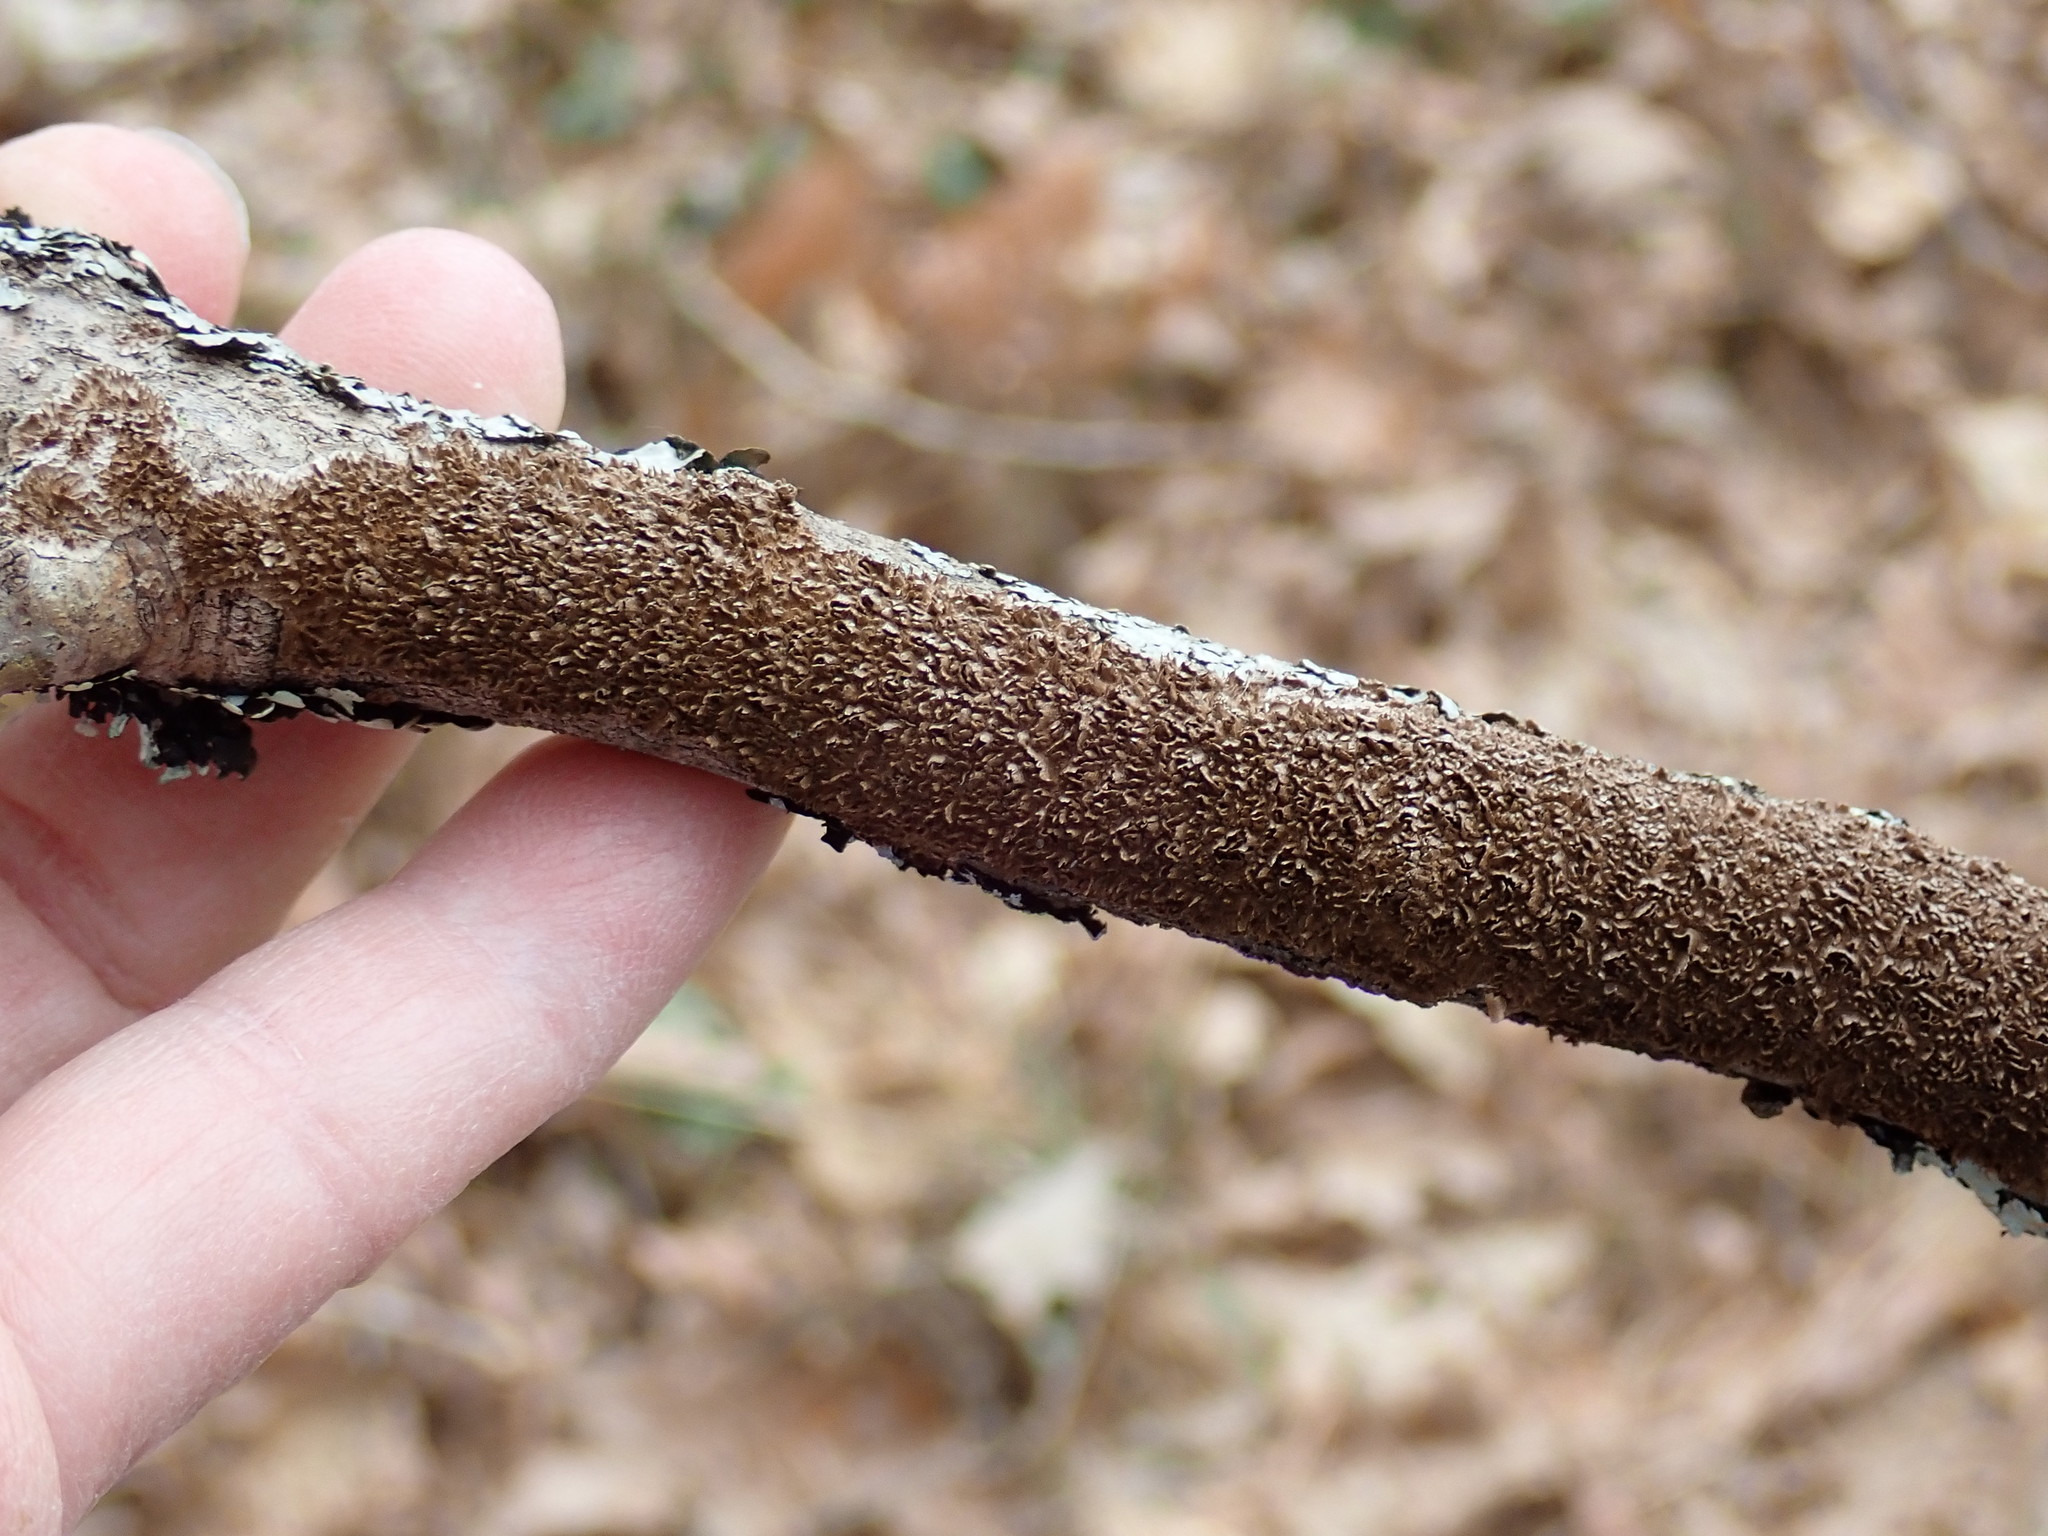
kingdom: Fungi
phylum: Basidiomycota
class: Agaricomycetes
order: Hymenochaetales
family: Hymenochaetaceae
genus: Hydnoporia
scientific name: Hydnoporia olivacea
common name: Brown-toothed crust fungus
